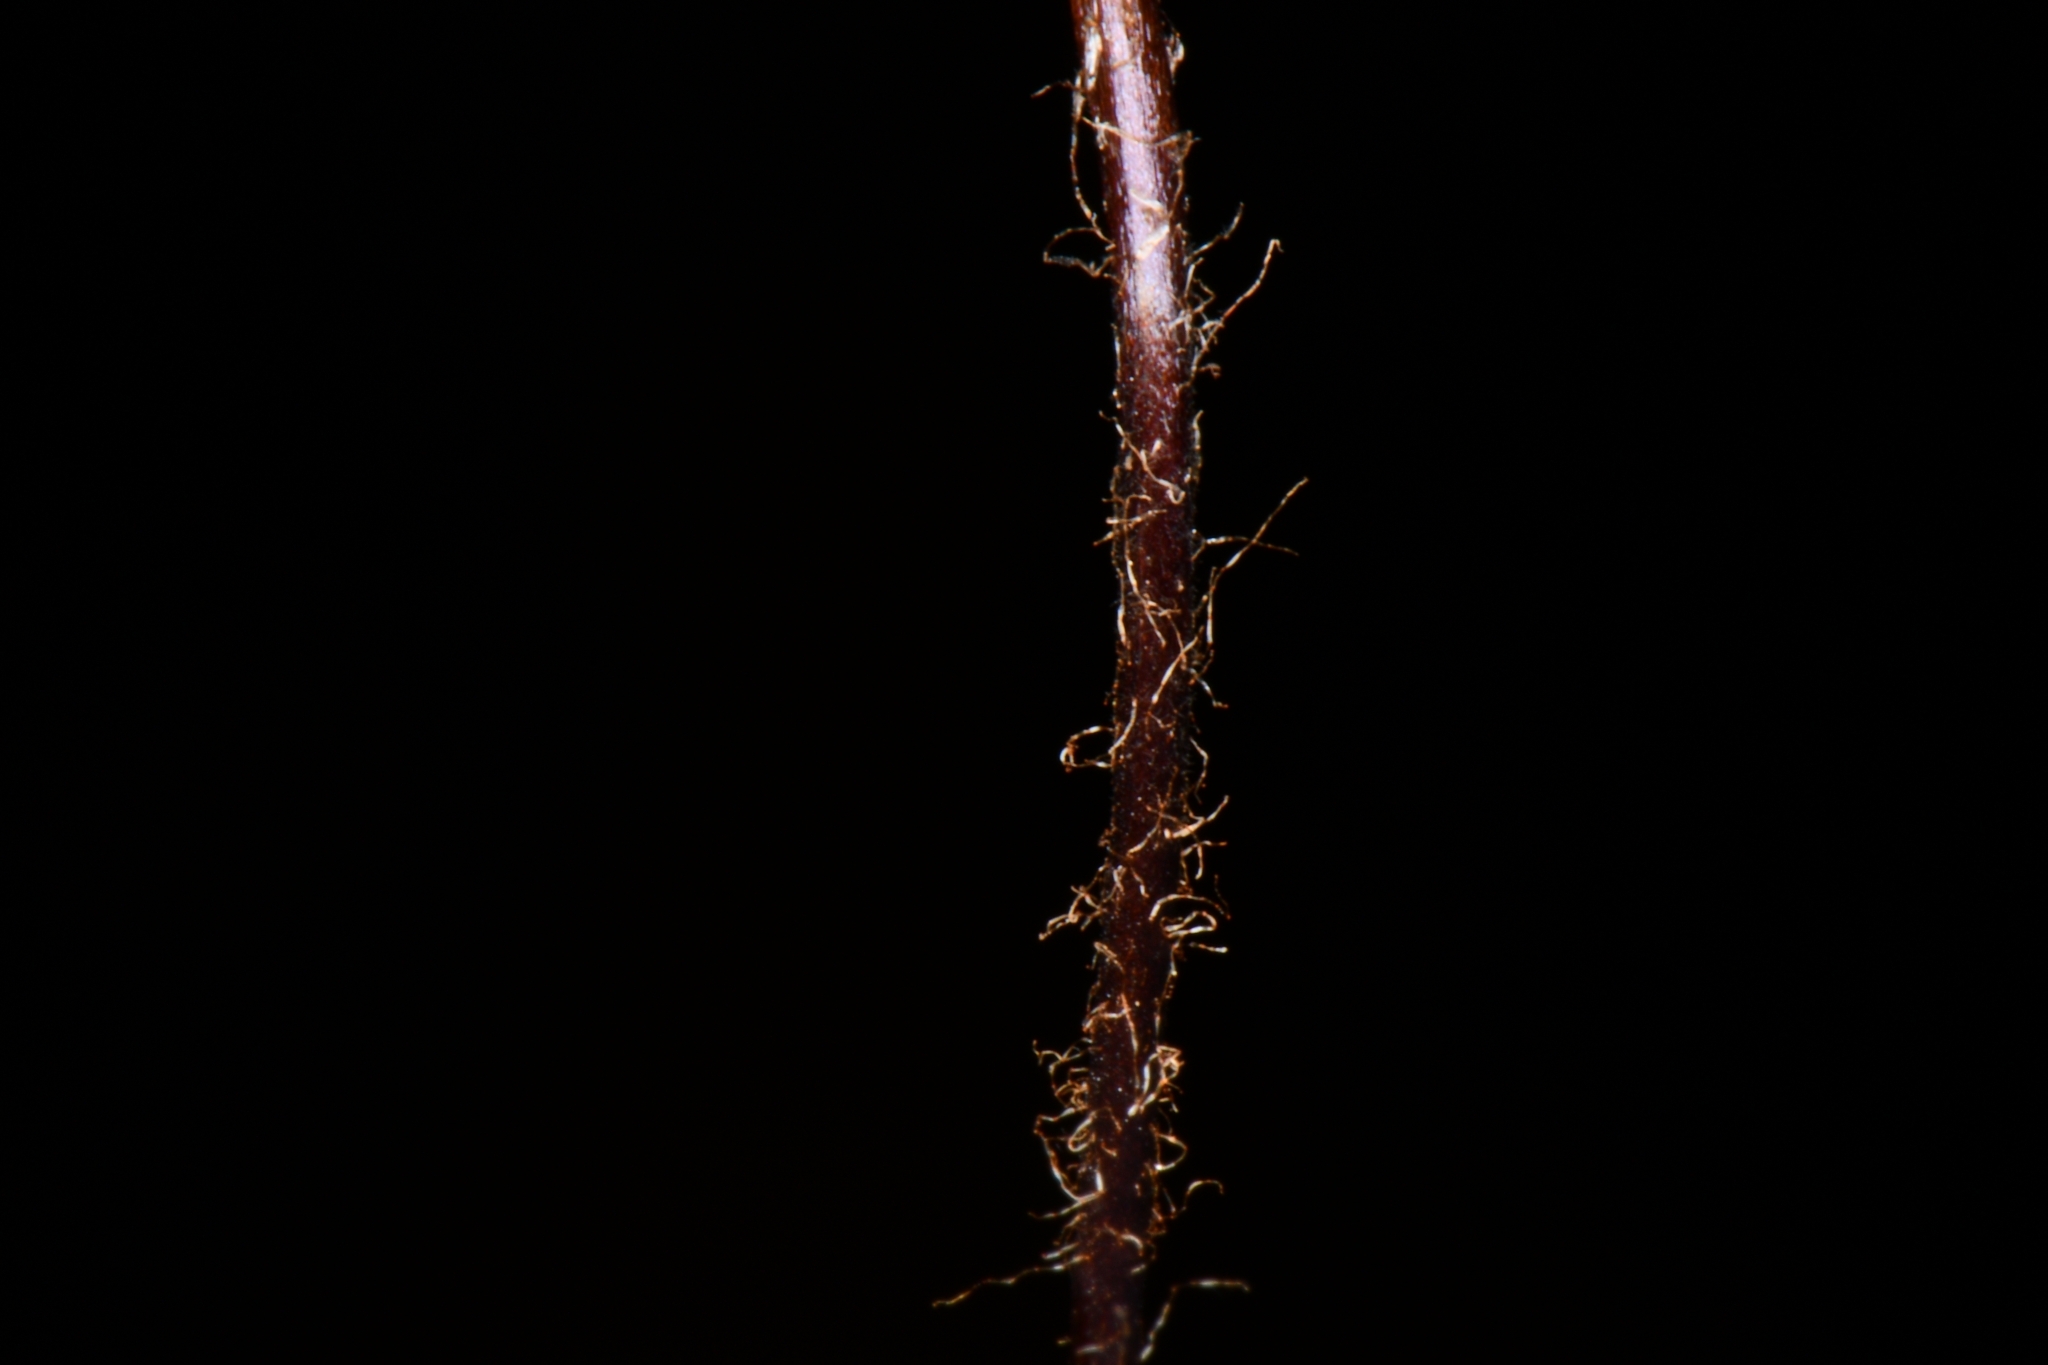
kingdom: Plantae
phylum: Tracheophyta
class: Polypodiopsida
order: Polypodiales
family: Pteridaceae
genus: Pellaea
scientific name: Pellaea glabella
